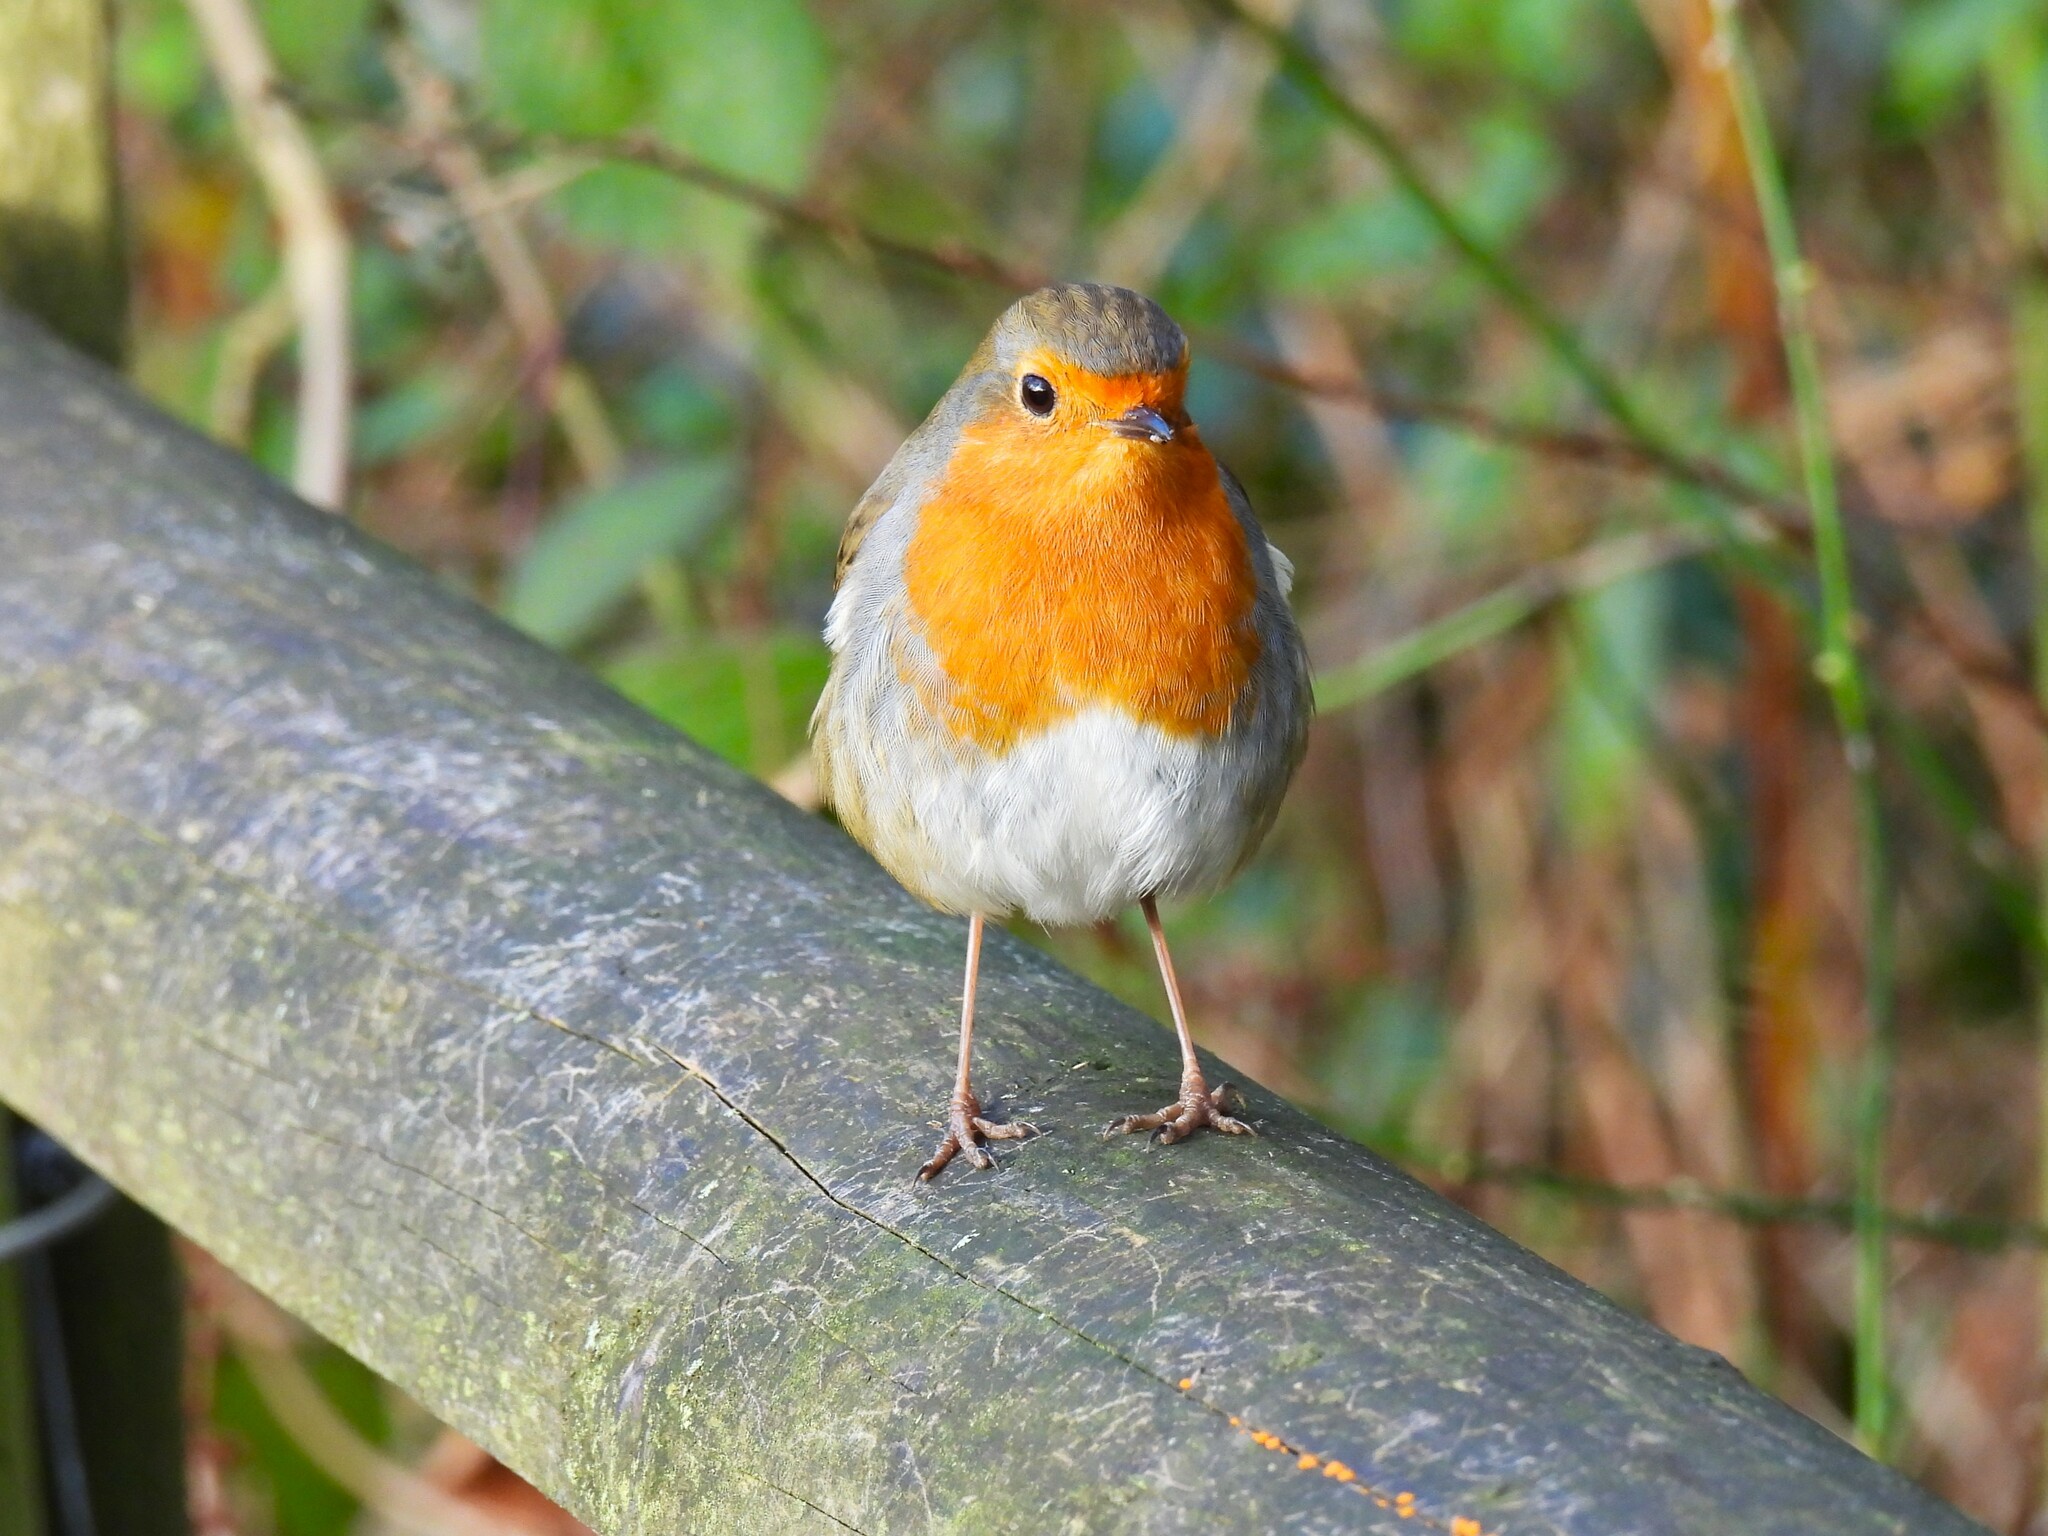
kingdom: Animalia
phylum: Chordata
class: Aves
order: Passeriformes
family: Muscicapidae
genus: Erithacus
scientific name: Erithacus rubecula
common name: European robin
